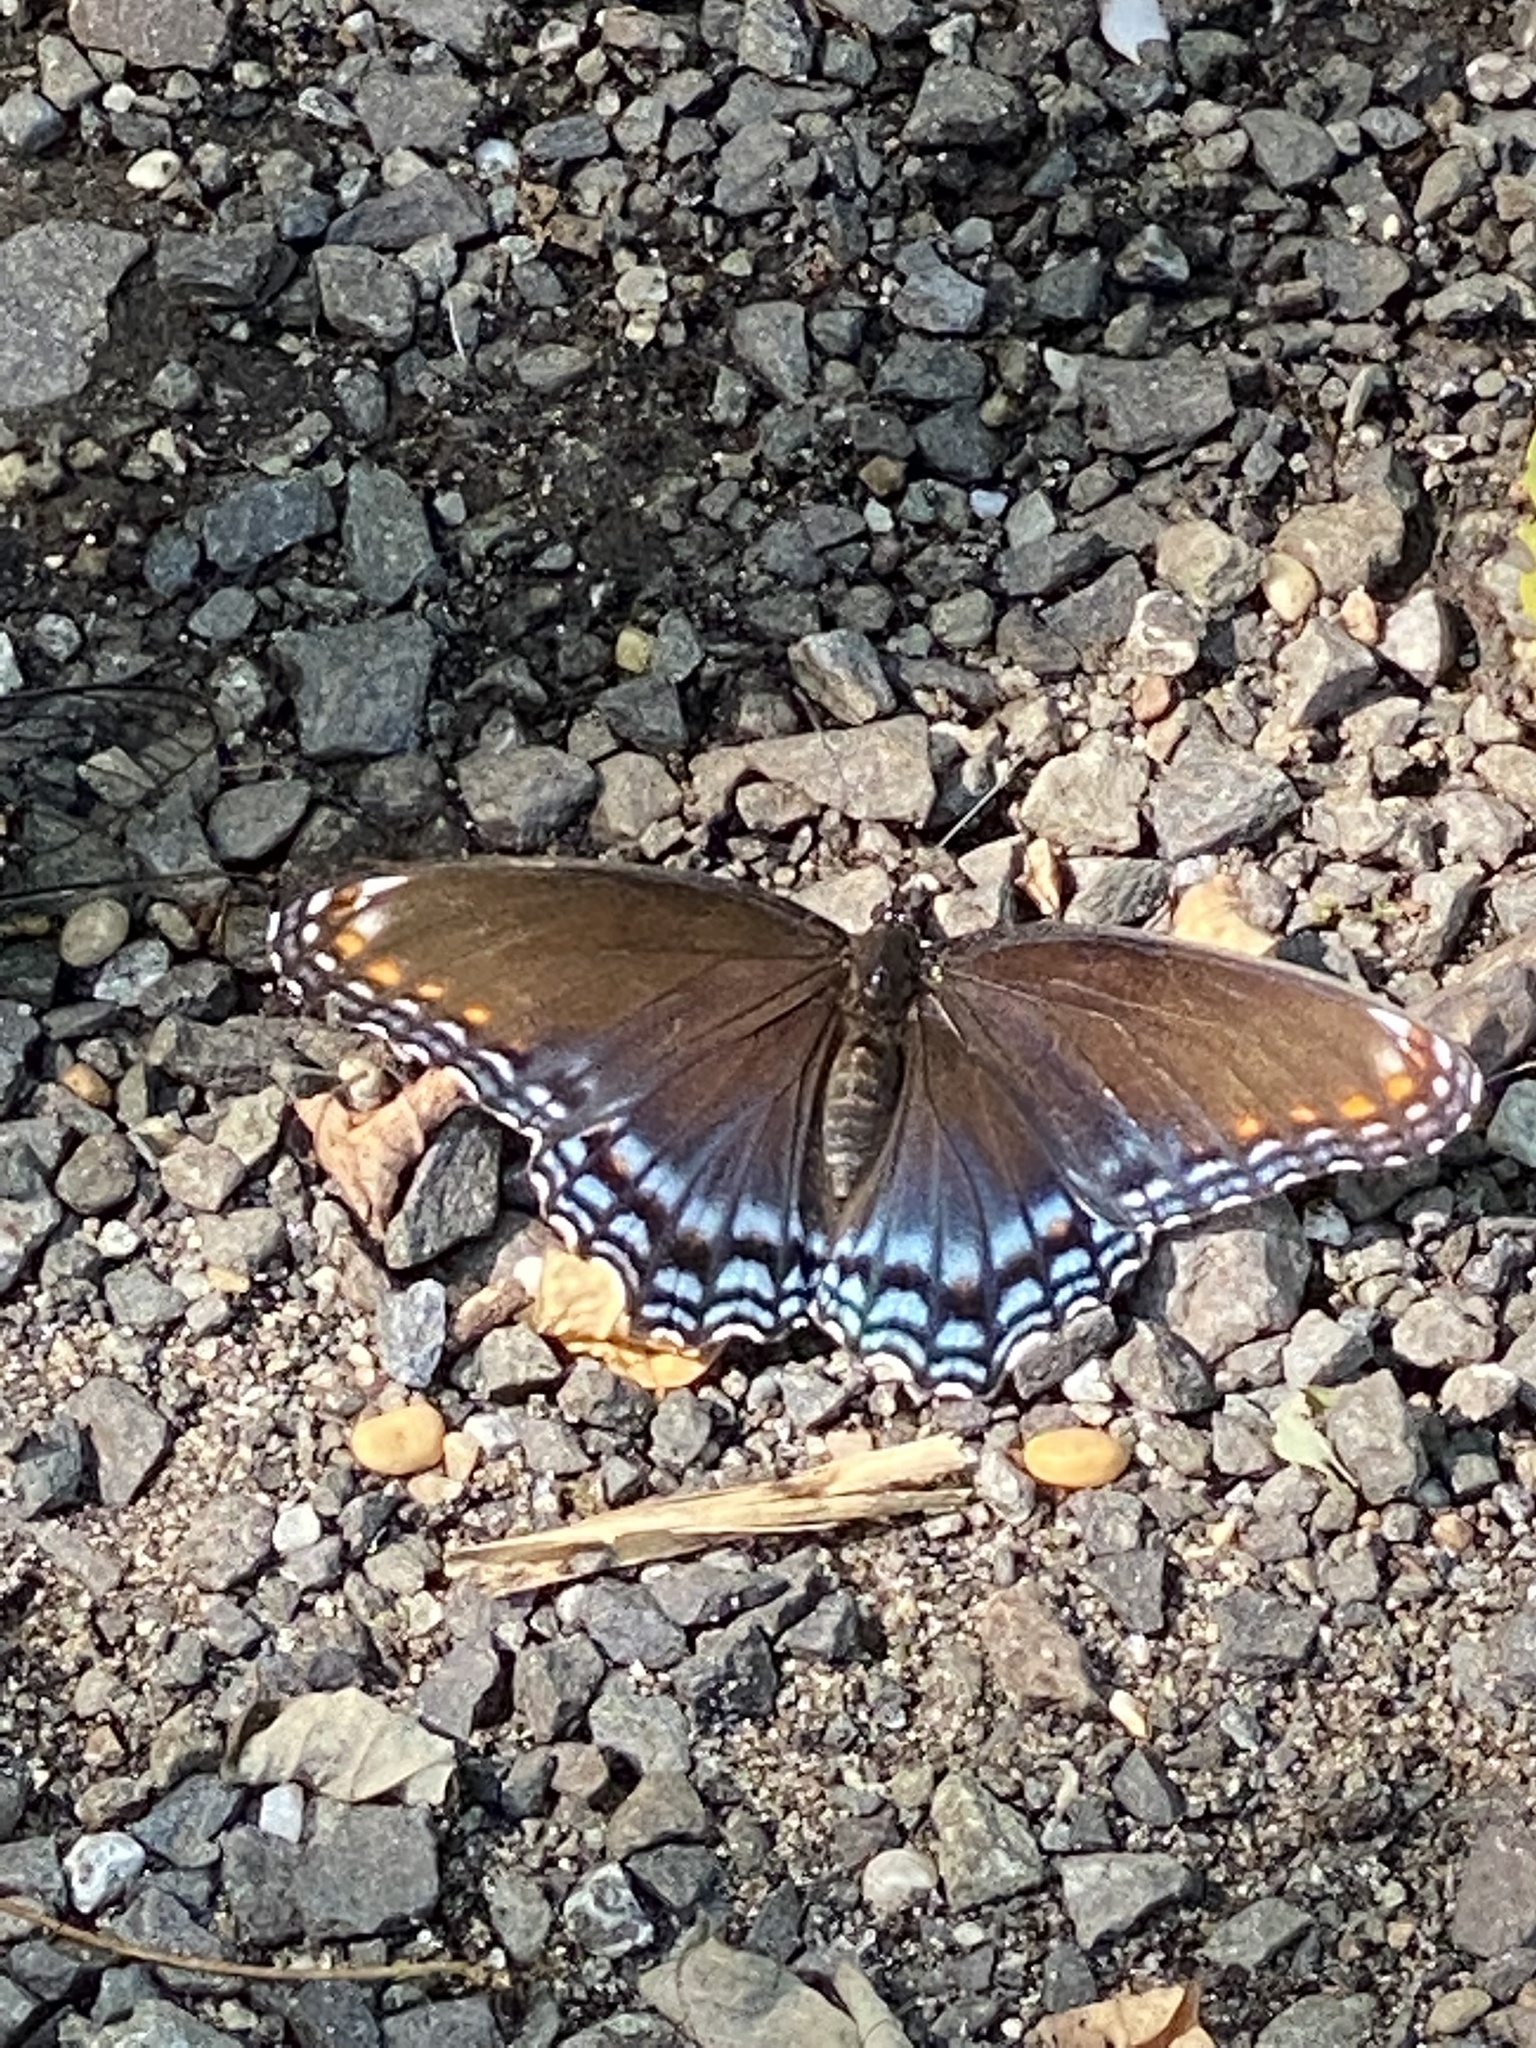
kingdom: Animalia
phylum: Arthropoda
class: Insecta
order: Lepidoptera
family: Nymphalidae
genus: Limenitis
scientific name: Limenitis astyanax
